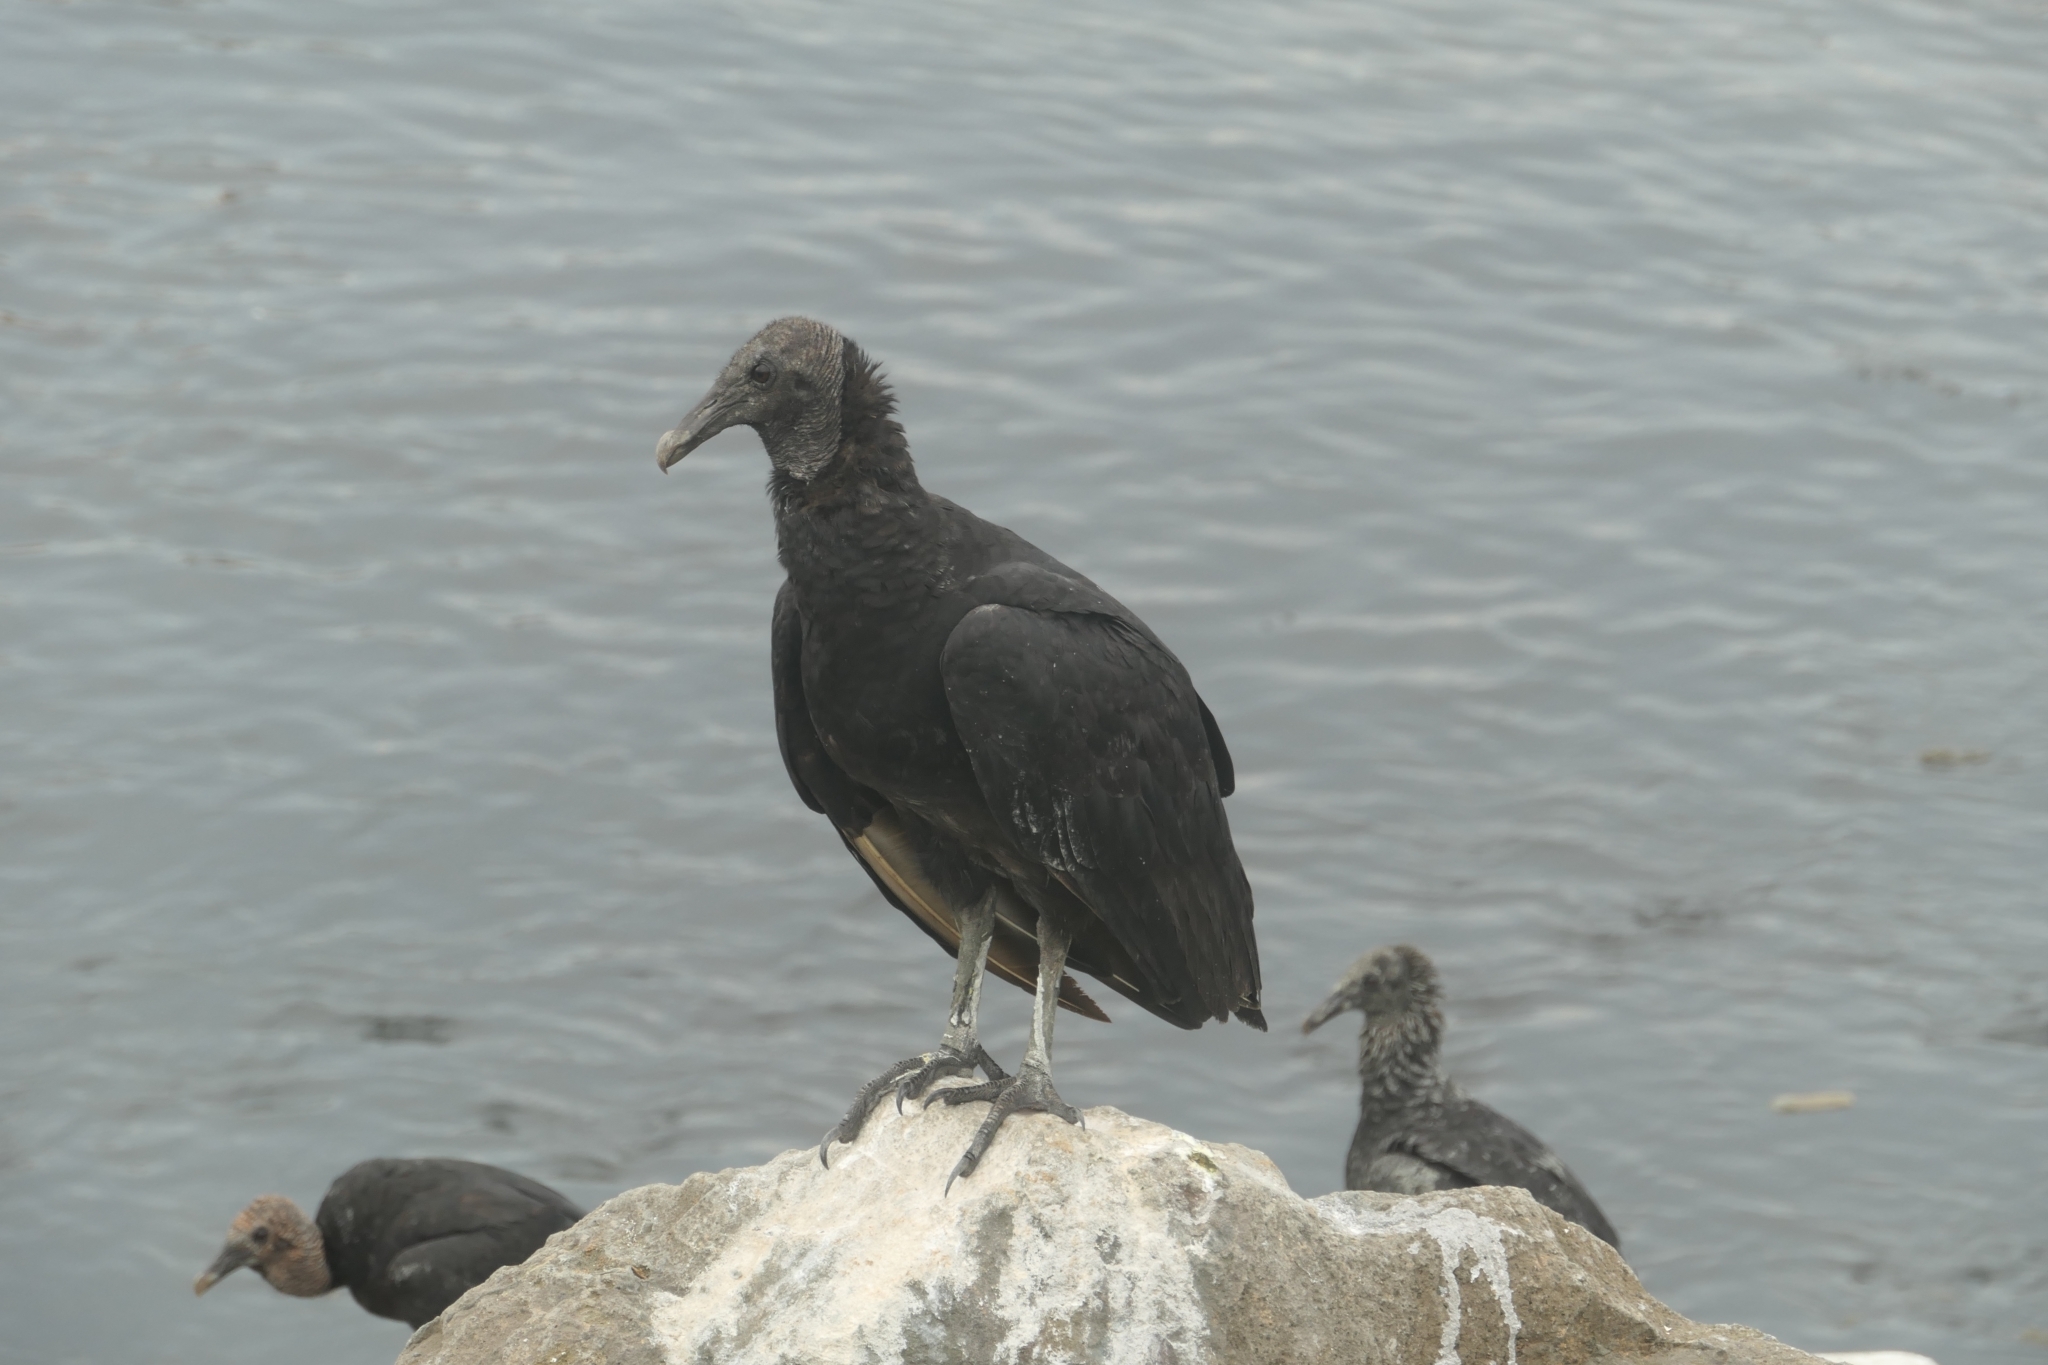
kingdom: Animalia
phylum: Chordata
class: Aves
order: Accipitriformes
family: Cathartidae
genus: Coragyps
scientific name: Coragyps atratus
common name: Black vulture
